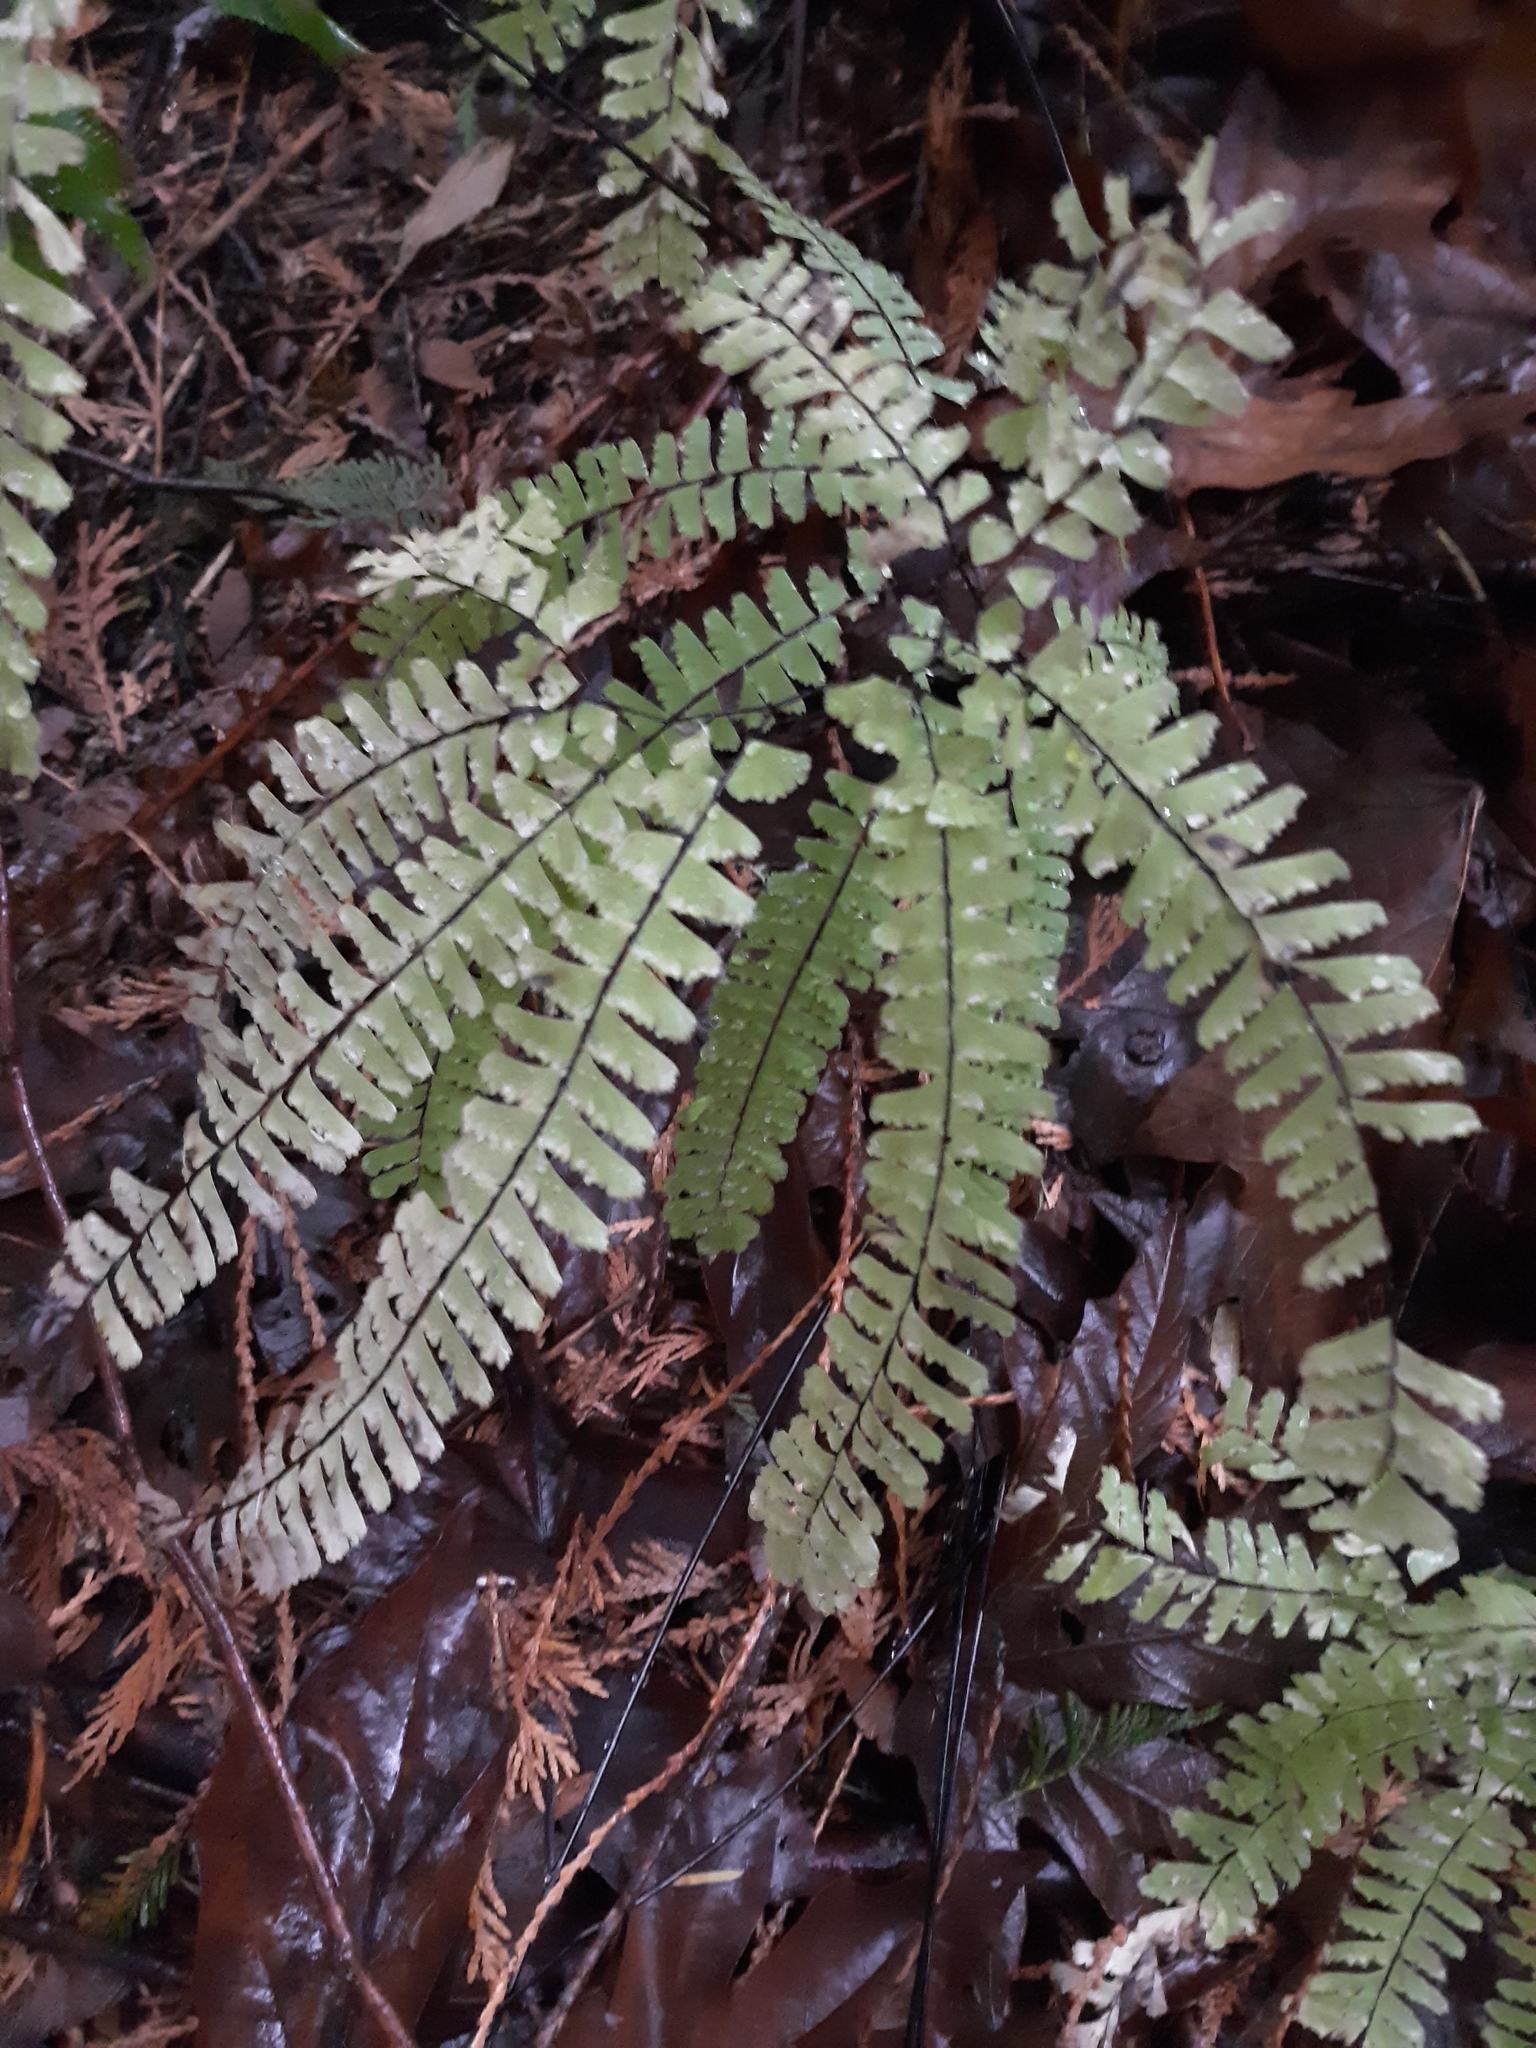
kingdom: Plantae
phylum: Tracheophyta
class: Polypodiopsida
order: Polypodiales
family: Pteridaceae
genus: Adiantum
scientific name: Adiantum aleuticum
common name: Aleutian maidenhair fern
